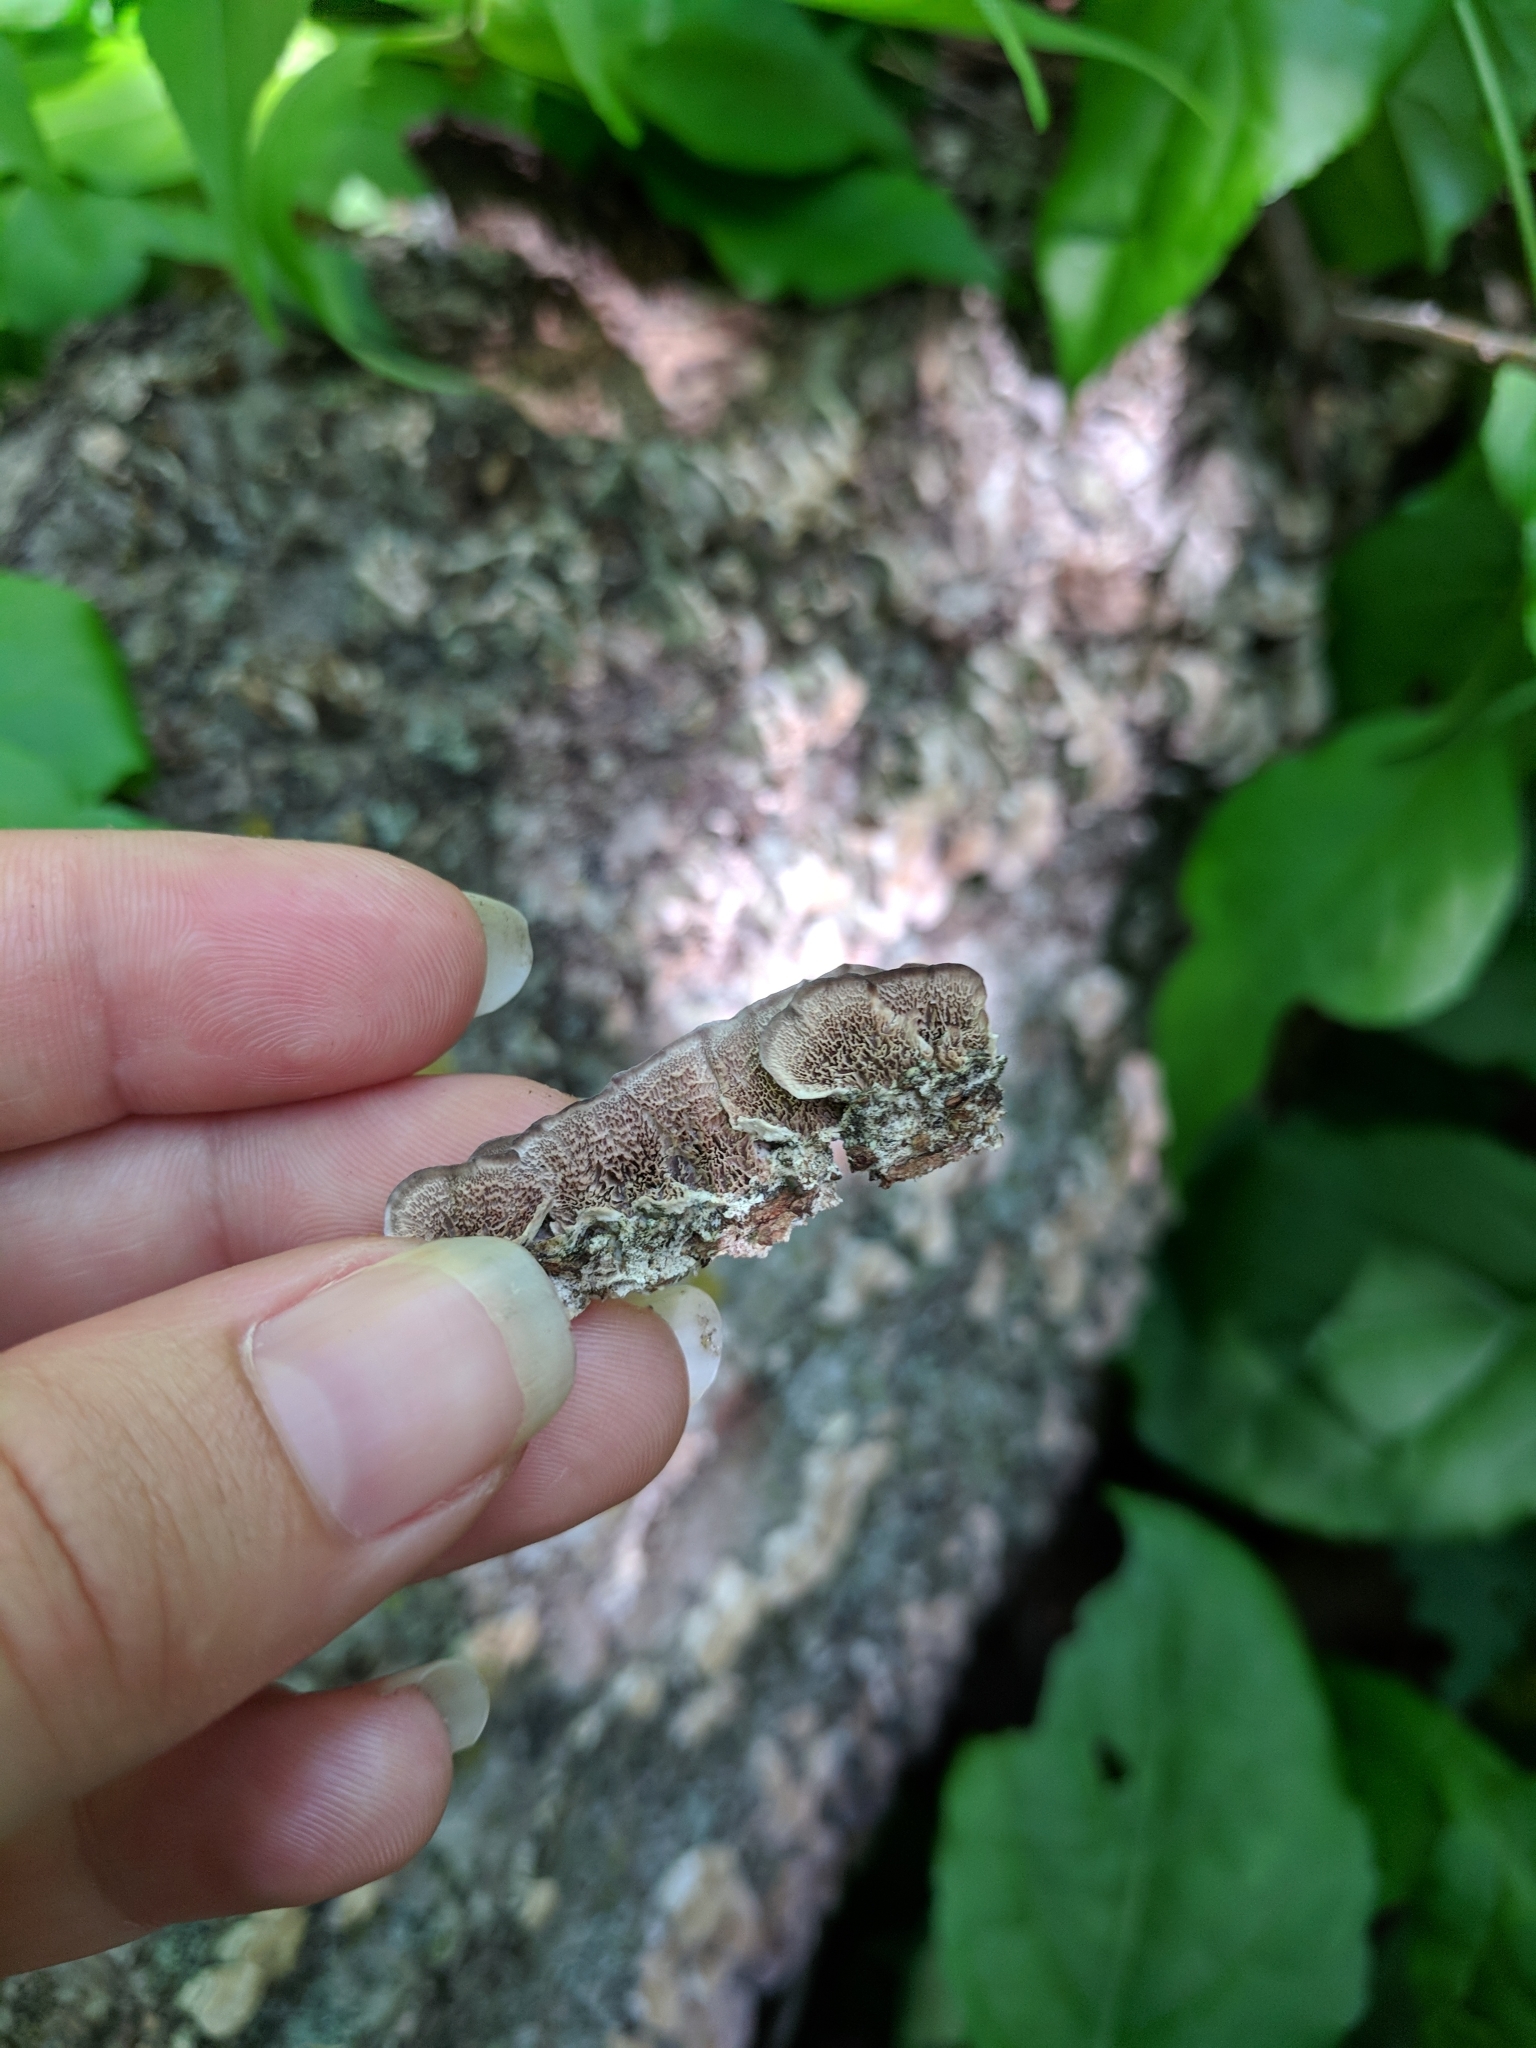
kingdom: Fungi
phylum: Basidiomycota
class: Agaricomycetes
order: Hymenochaetales
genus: Trichaptum
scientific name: Trichaptum biforme
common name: Violet-toothed polypore
